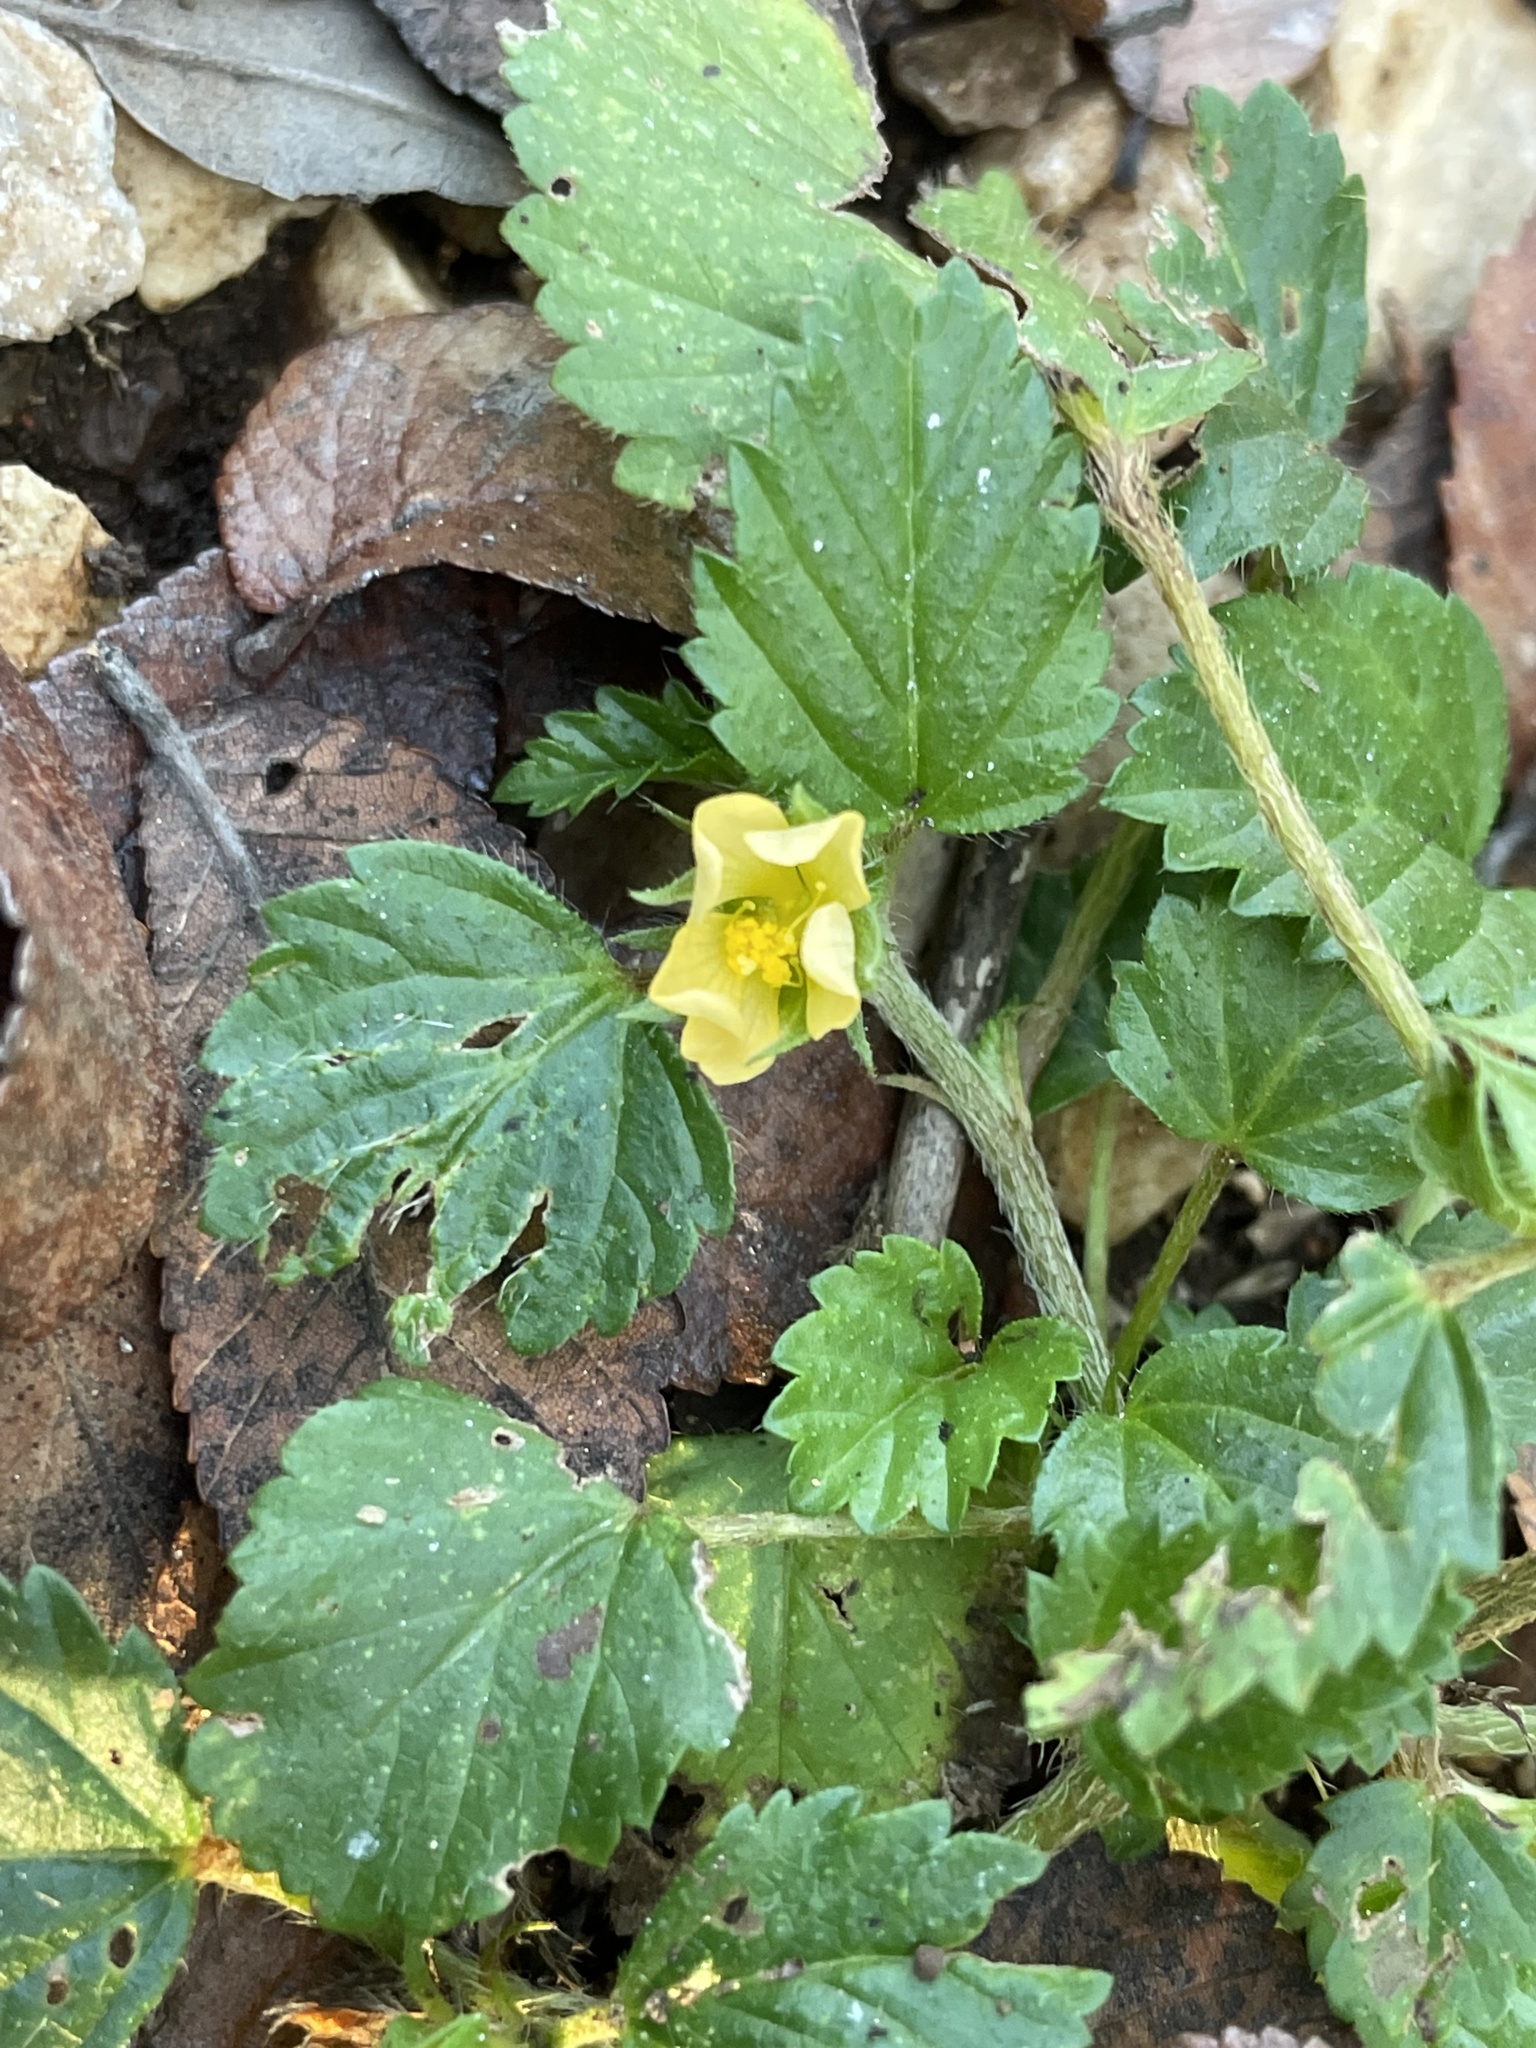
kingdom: Plantae
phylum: Tracheophyta
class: Magnoliopsida
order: Malvales
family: Malvaceae
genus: Malvastrum
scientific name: Malvastrum coromandelianum
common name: Threelobe false mallow
